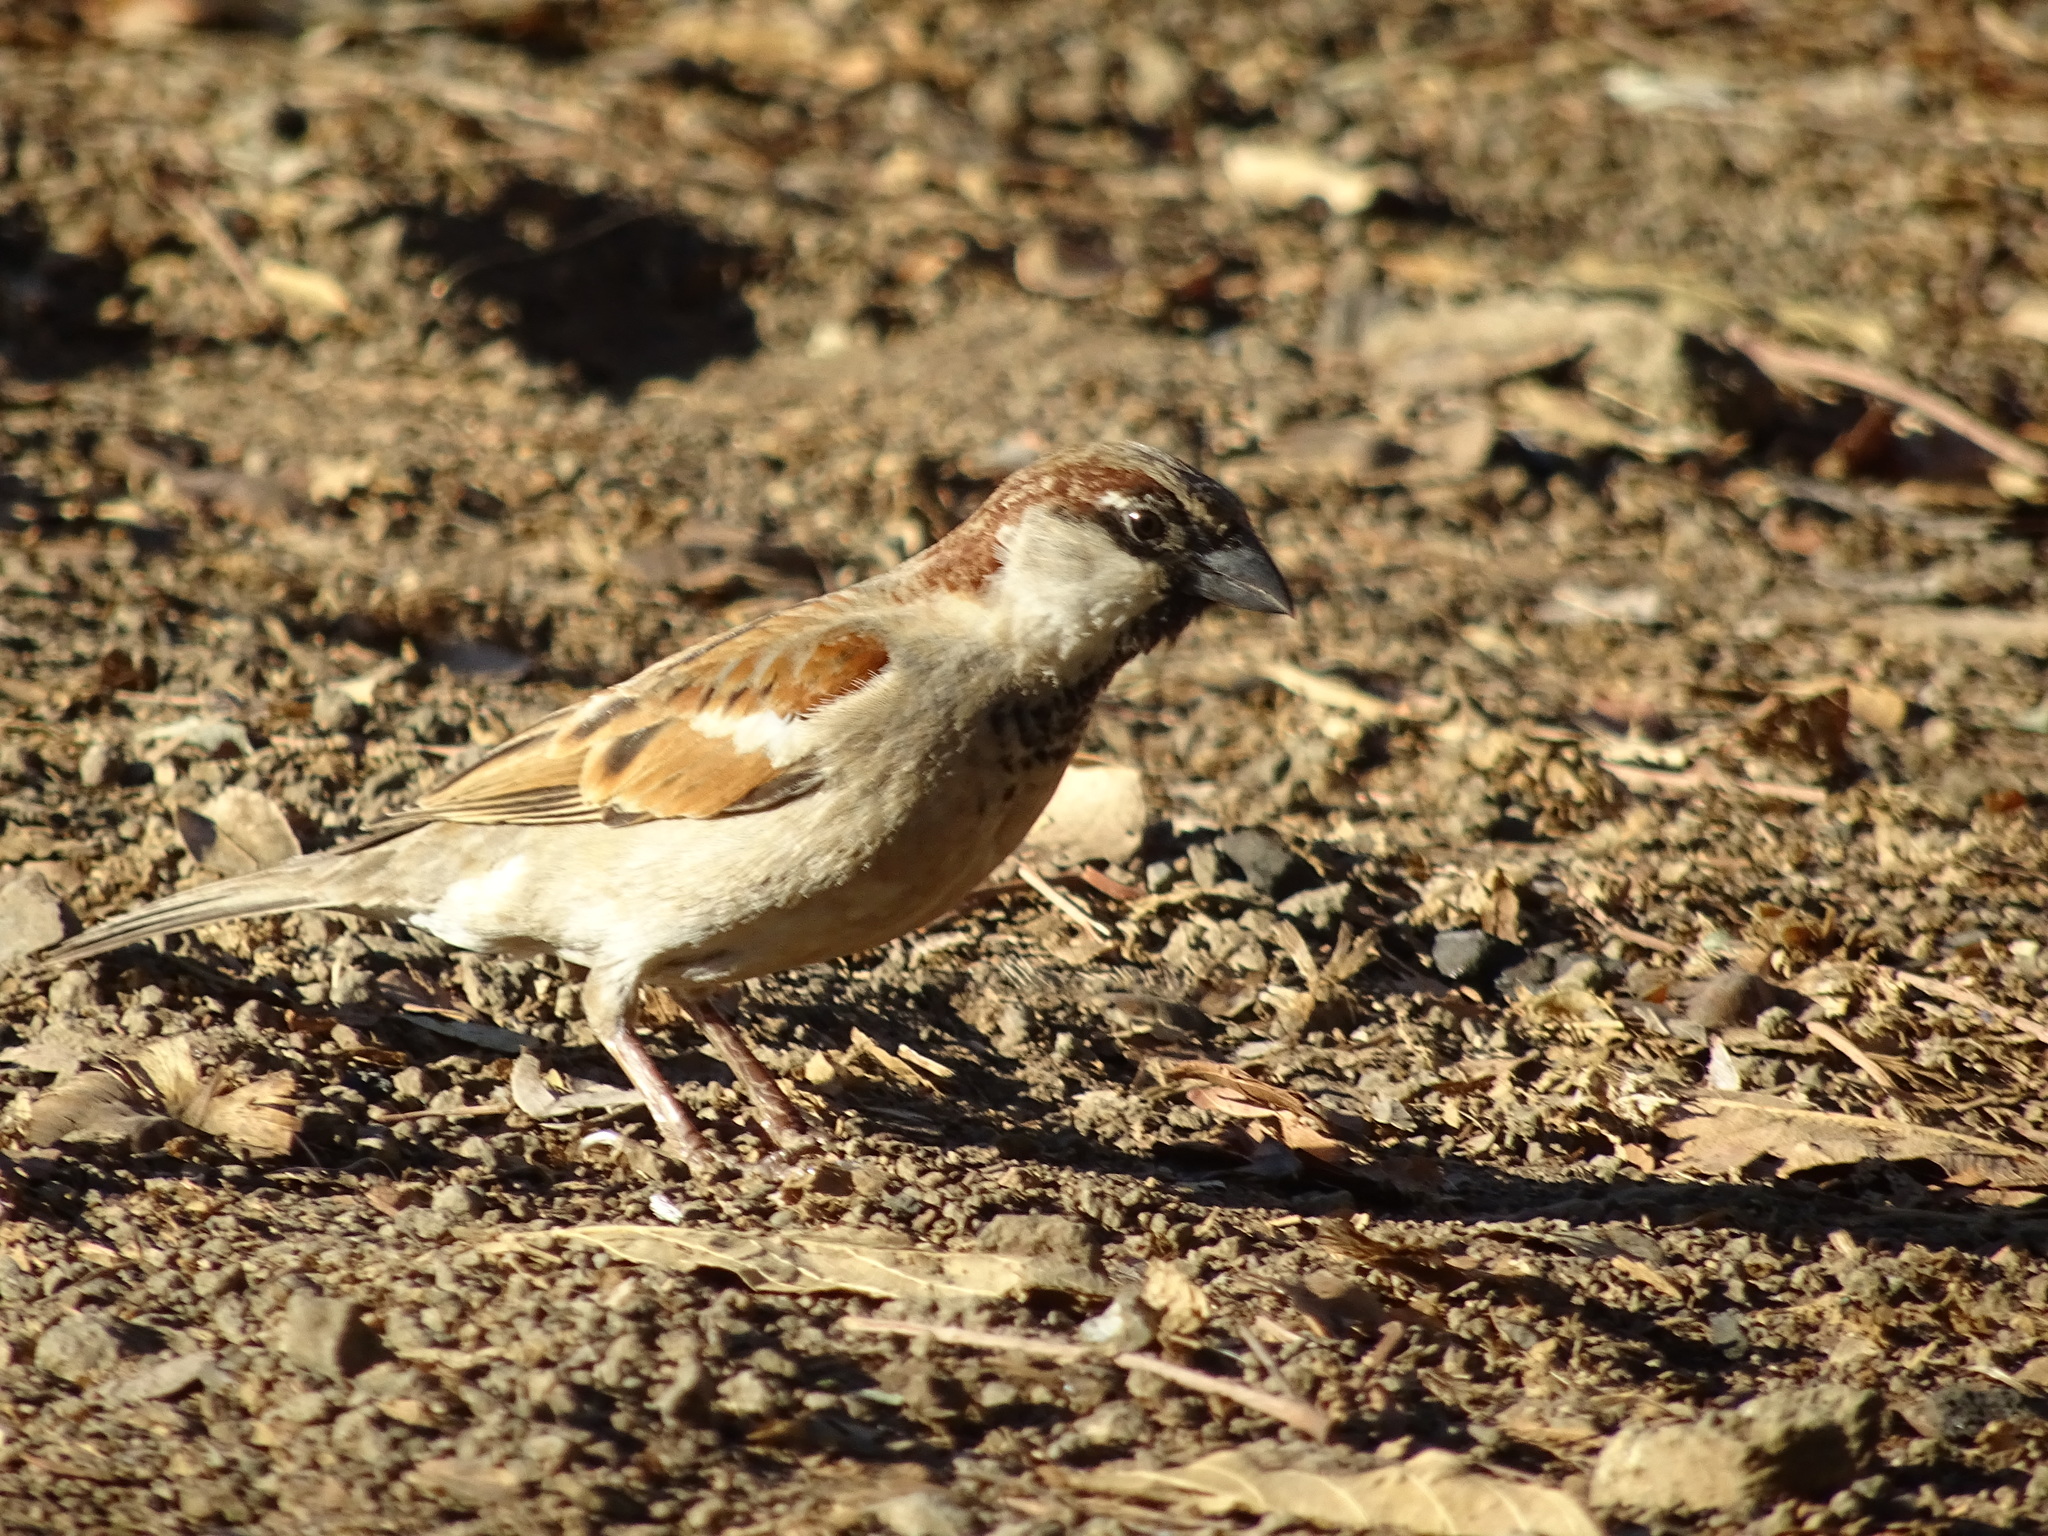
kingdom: Animalia
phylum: Chordata
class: Aves
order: Passeriformes
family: Passeridae
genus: Passer
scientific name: Passer domesticus
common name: House sparrow
